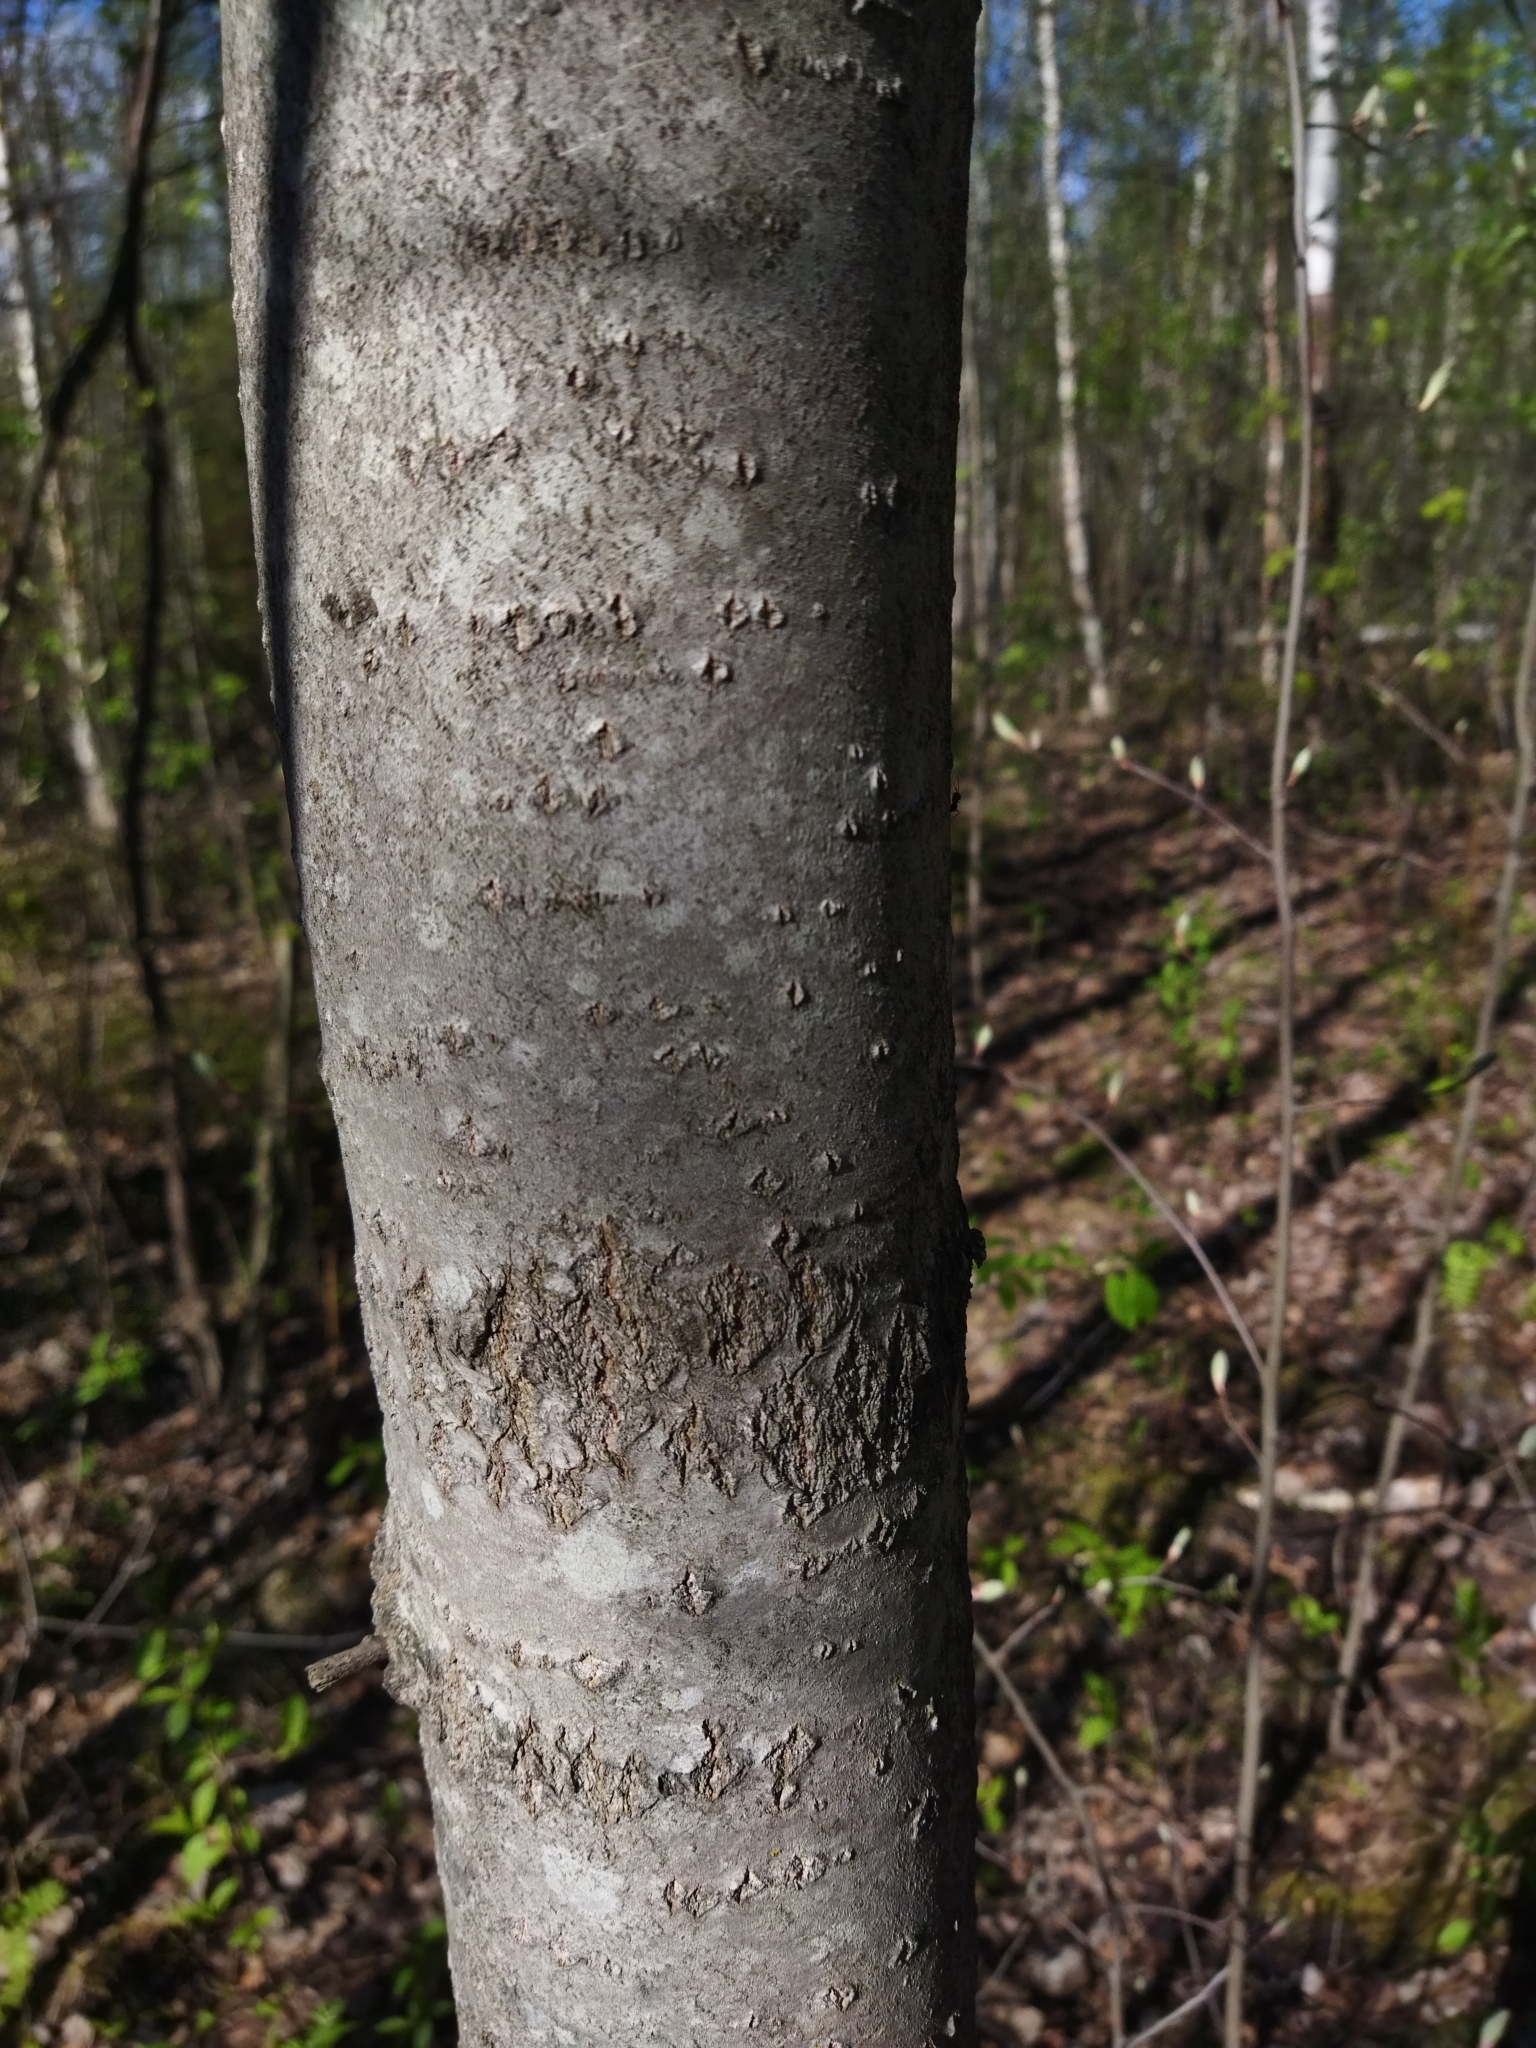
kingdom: Plantae
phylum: Tracheophyta
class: Magnoliopsida
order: Malpighiales
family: Salicaceae
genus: Populus
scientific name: Populus tremula
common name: European aspen
